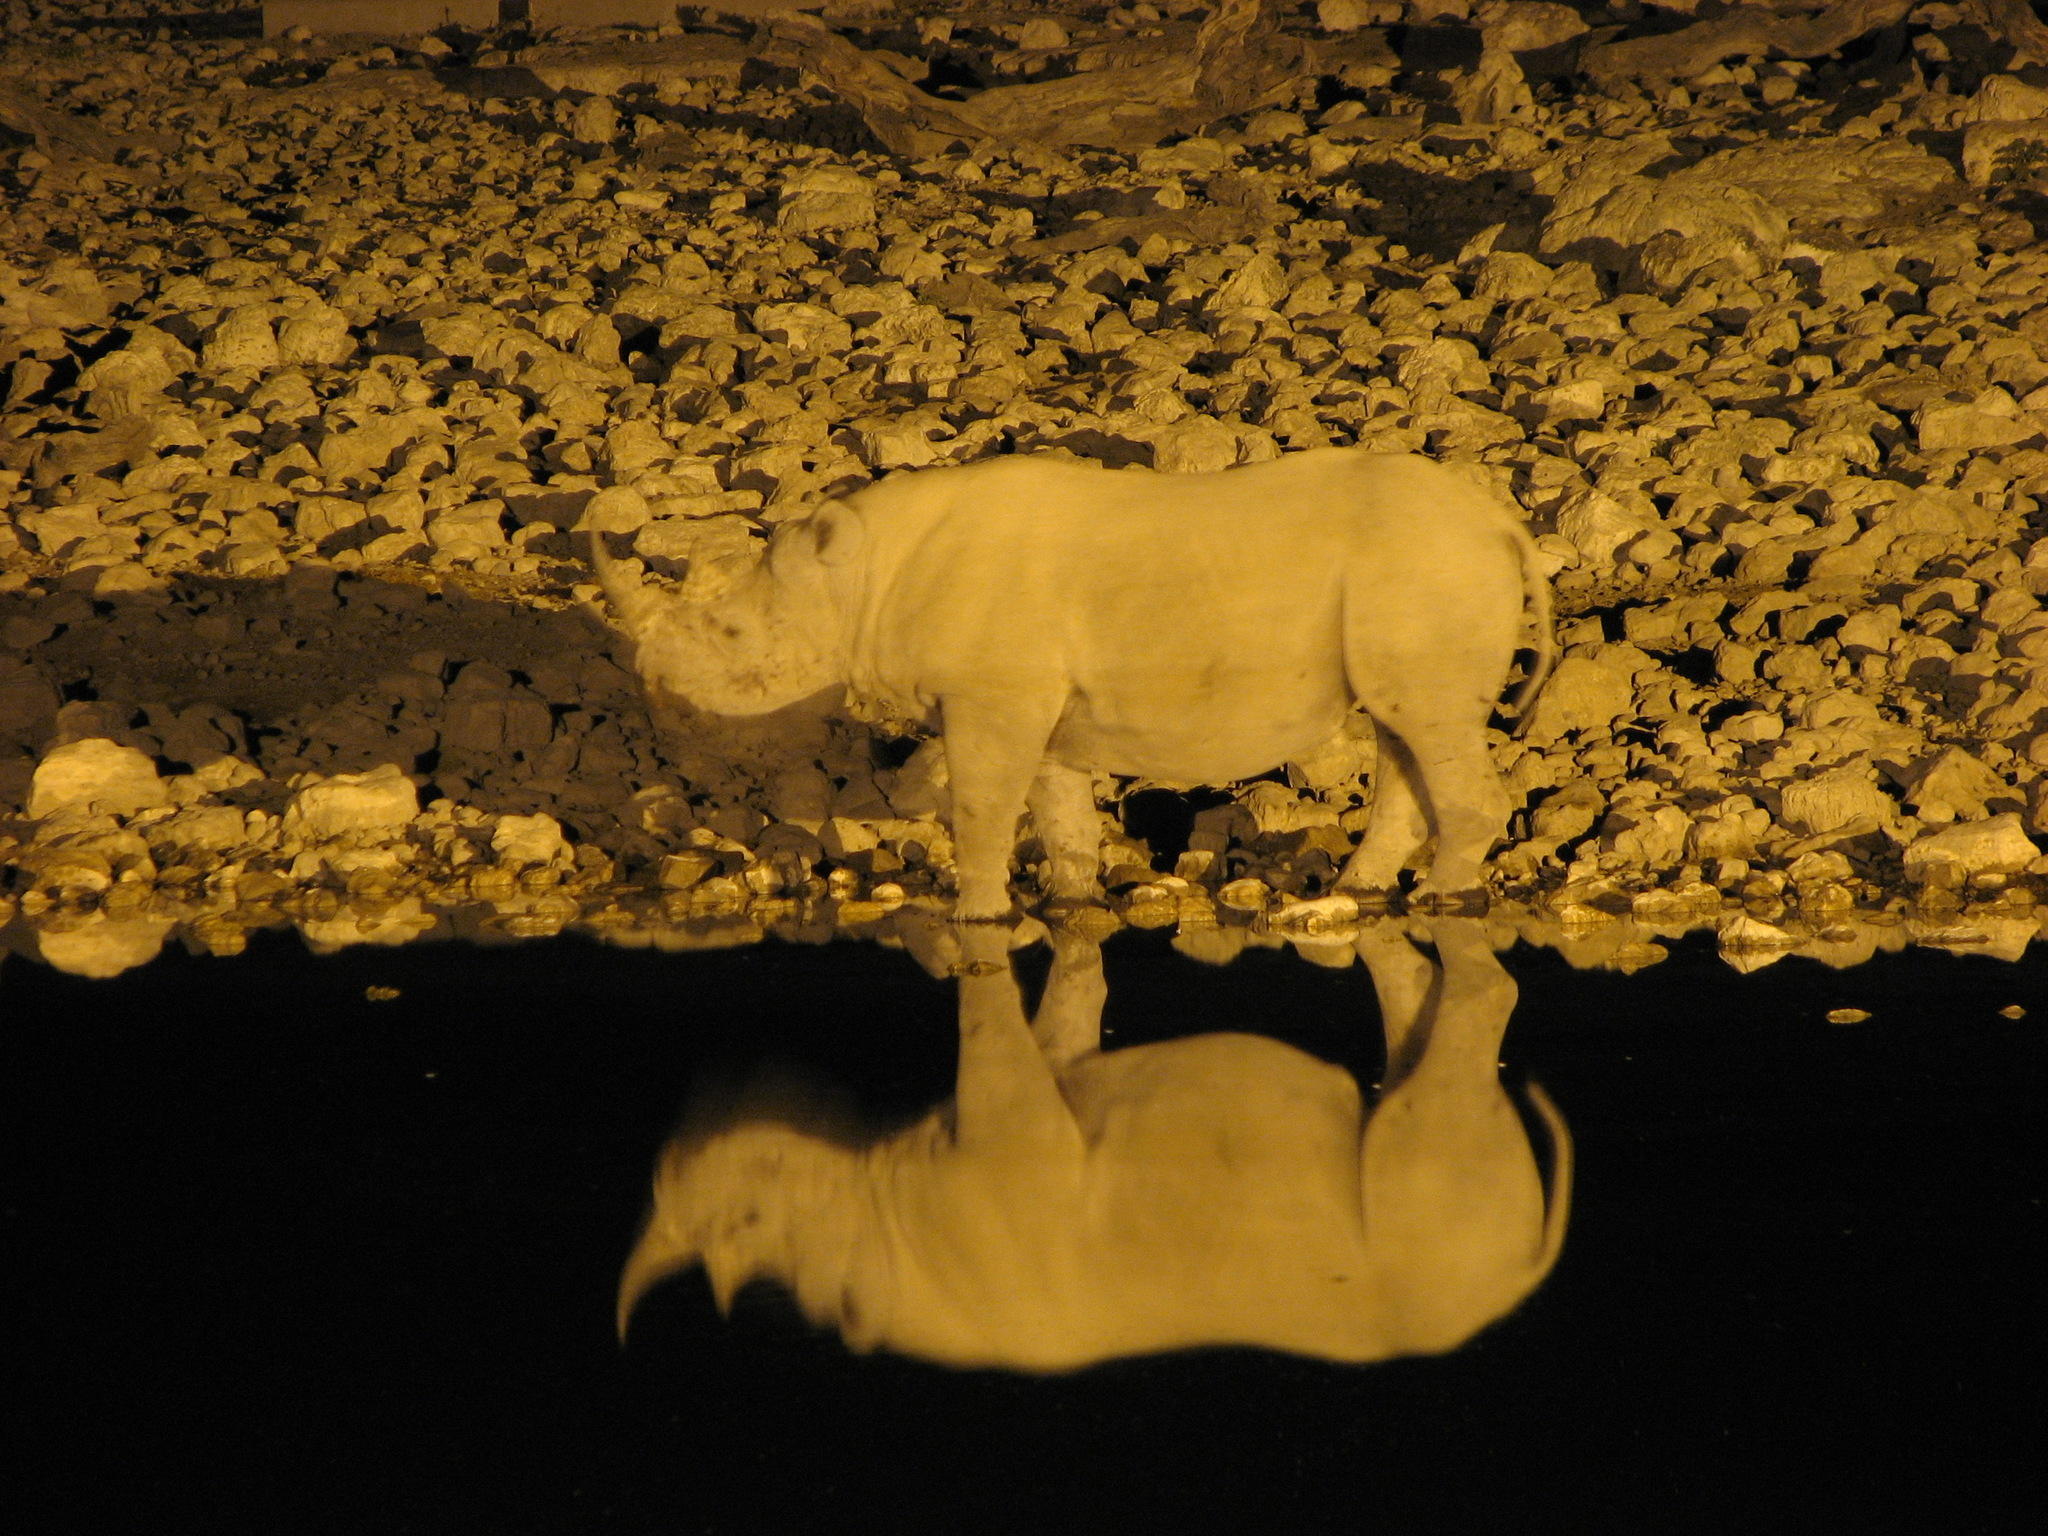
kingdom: Animalia
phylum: Chordata
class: Mammalia
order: Perissodactyla
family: Rhinocerotidae
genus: Diceros
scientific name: Diceros bicornis
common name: Black rhinoceros
